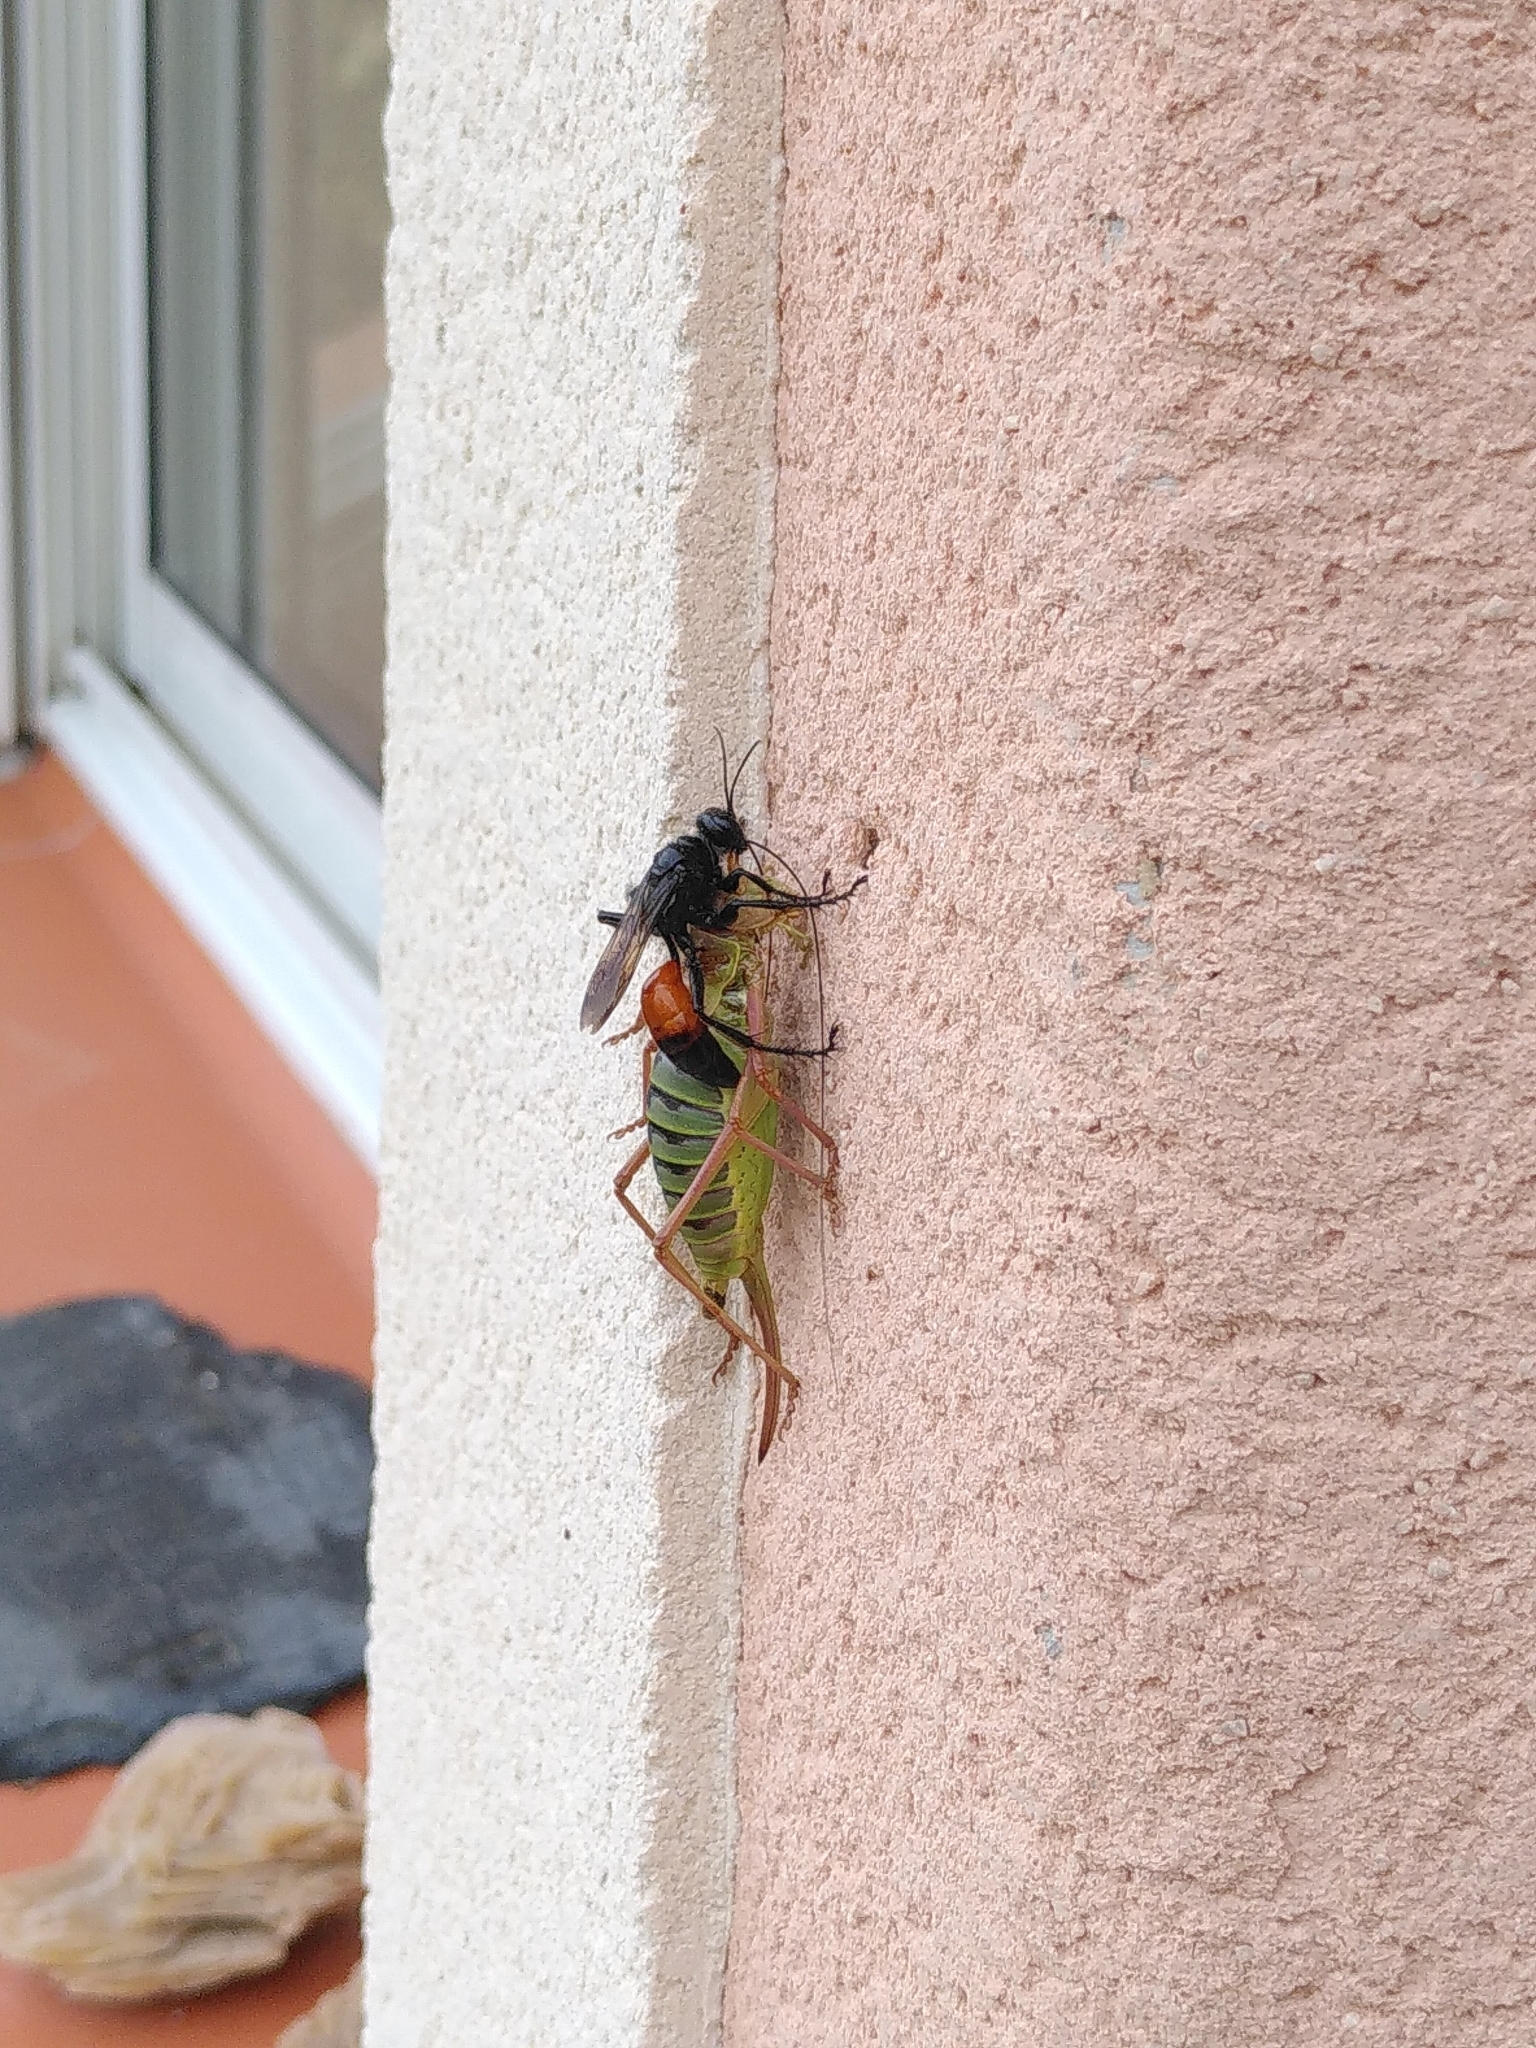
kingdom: Animalia
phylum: Arthropoda
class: Insecta
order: Hymenoptera
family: Sphecidae
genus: Palmodes
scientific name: Palmodes occitanicus
